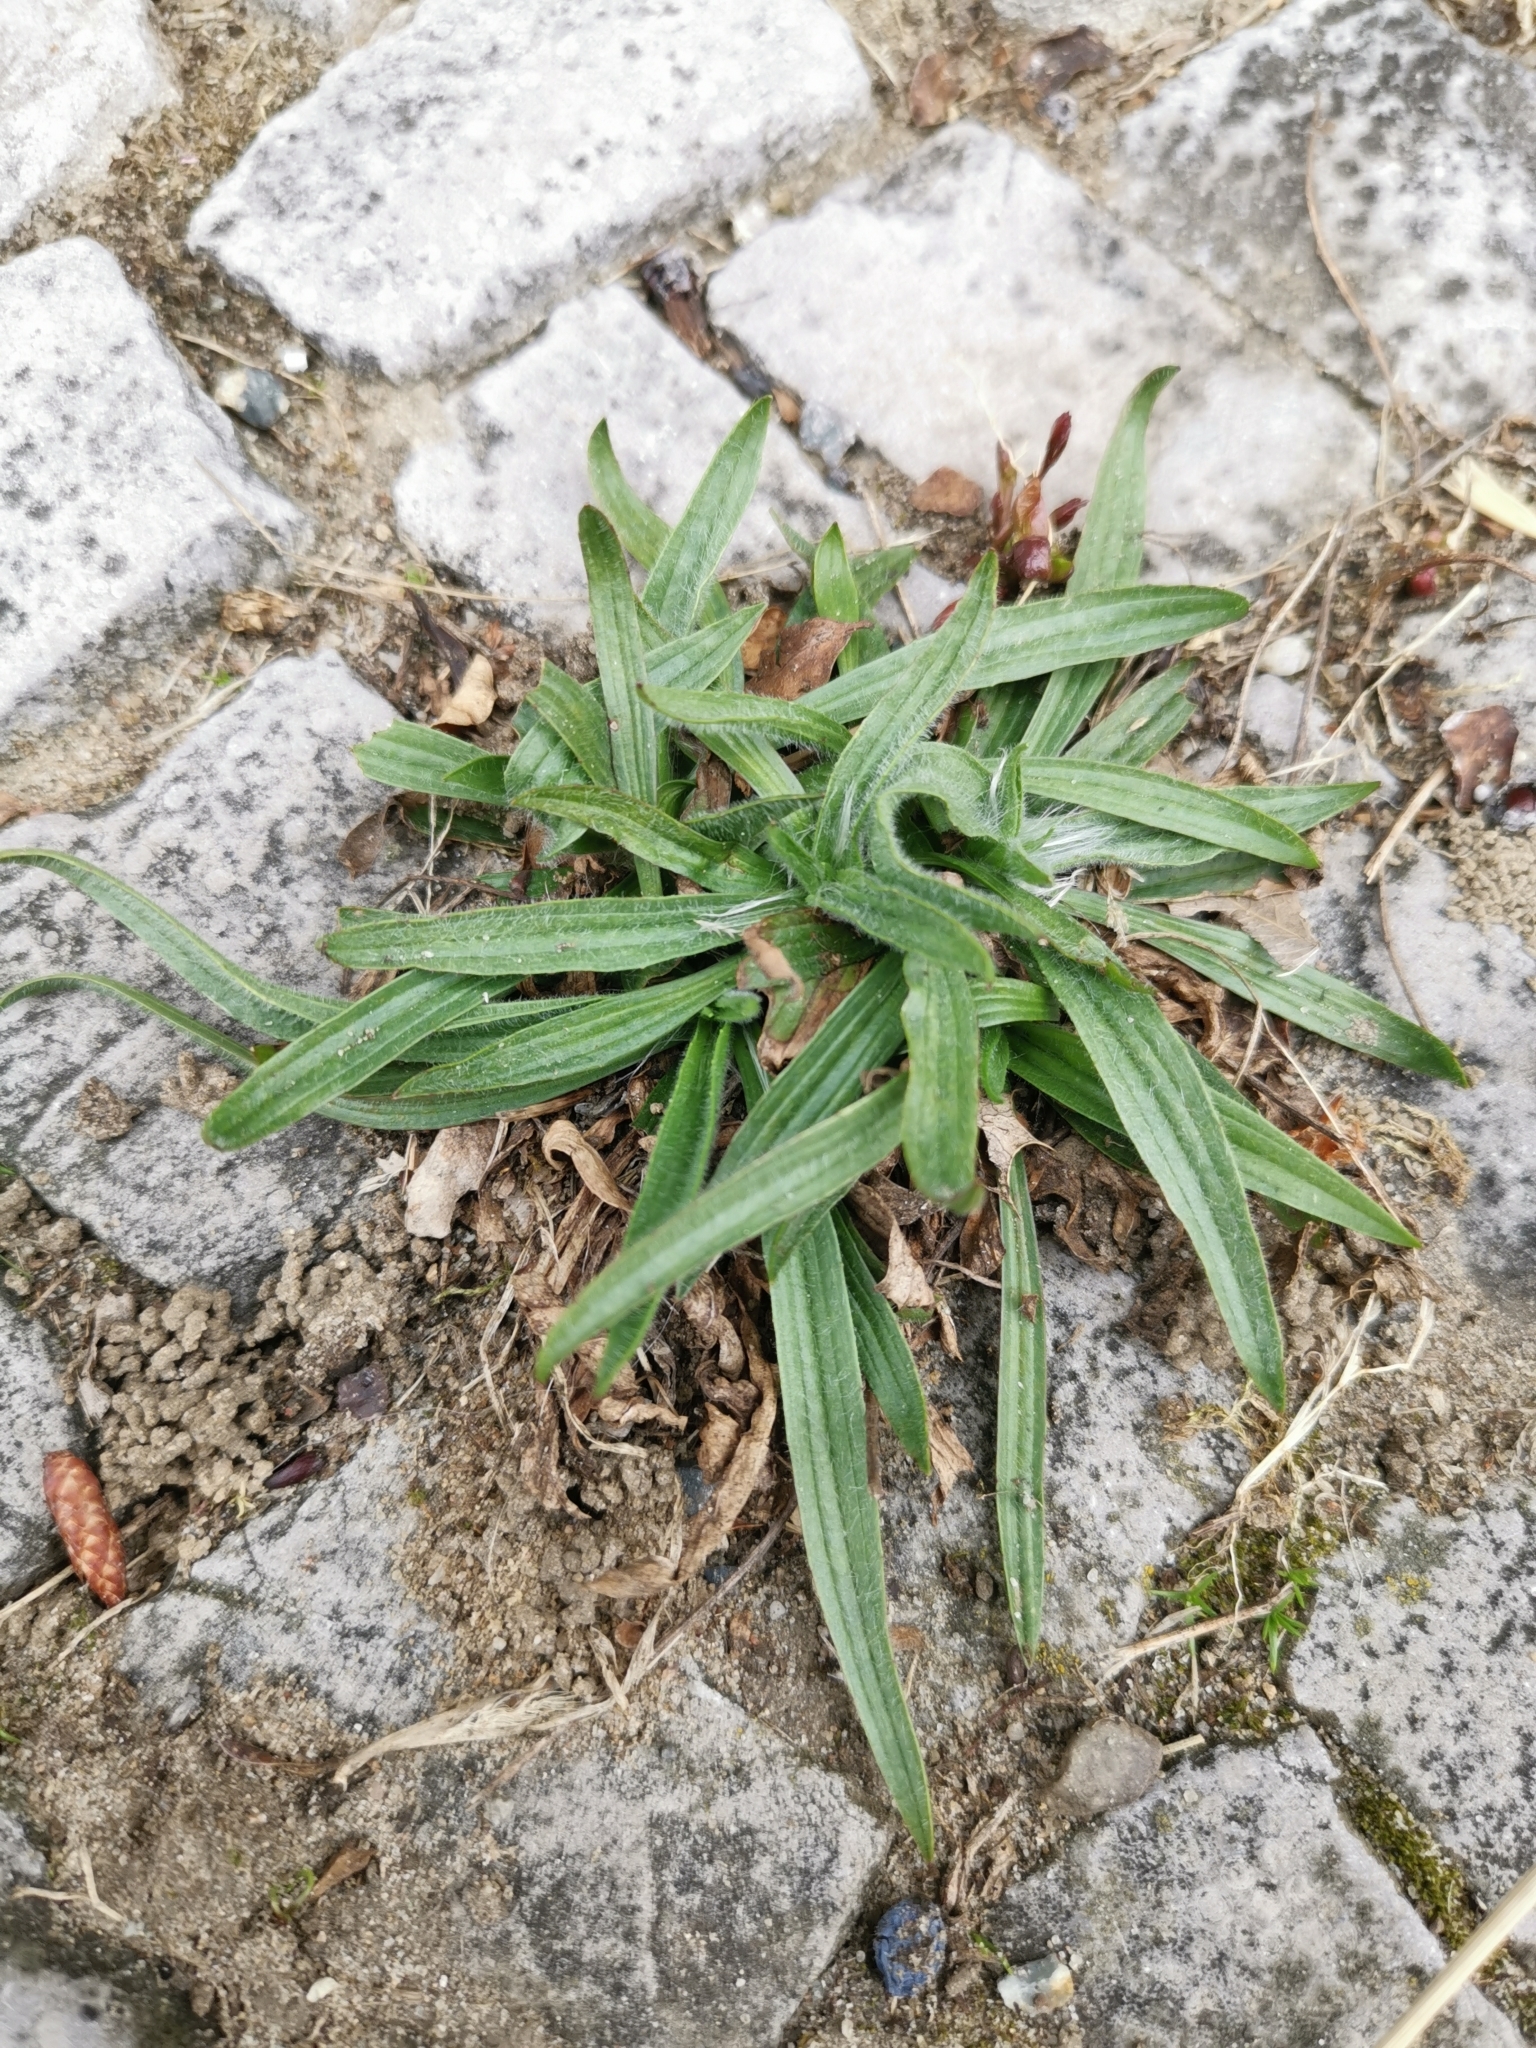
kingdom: Plantae
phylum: Tracheophyta
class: Magnoliopsida
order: Lamiales
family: Plantaginaceae
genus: Plantago
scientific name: Plantago lanceolata
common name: Ribwort plantain
